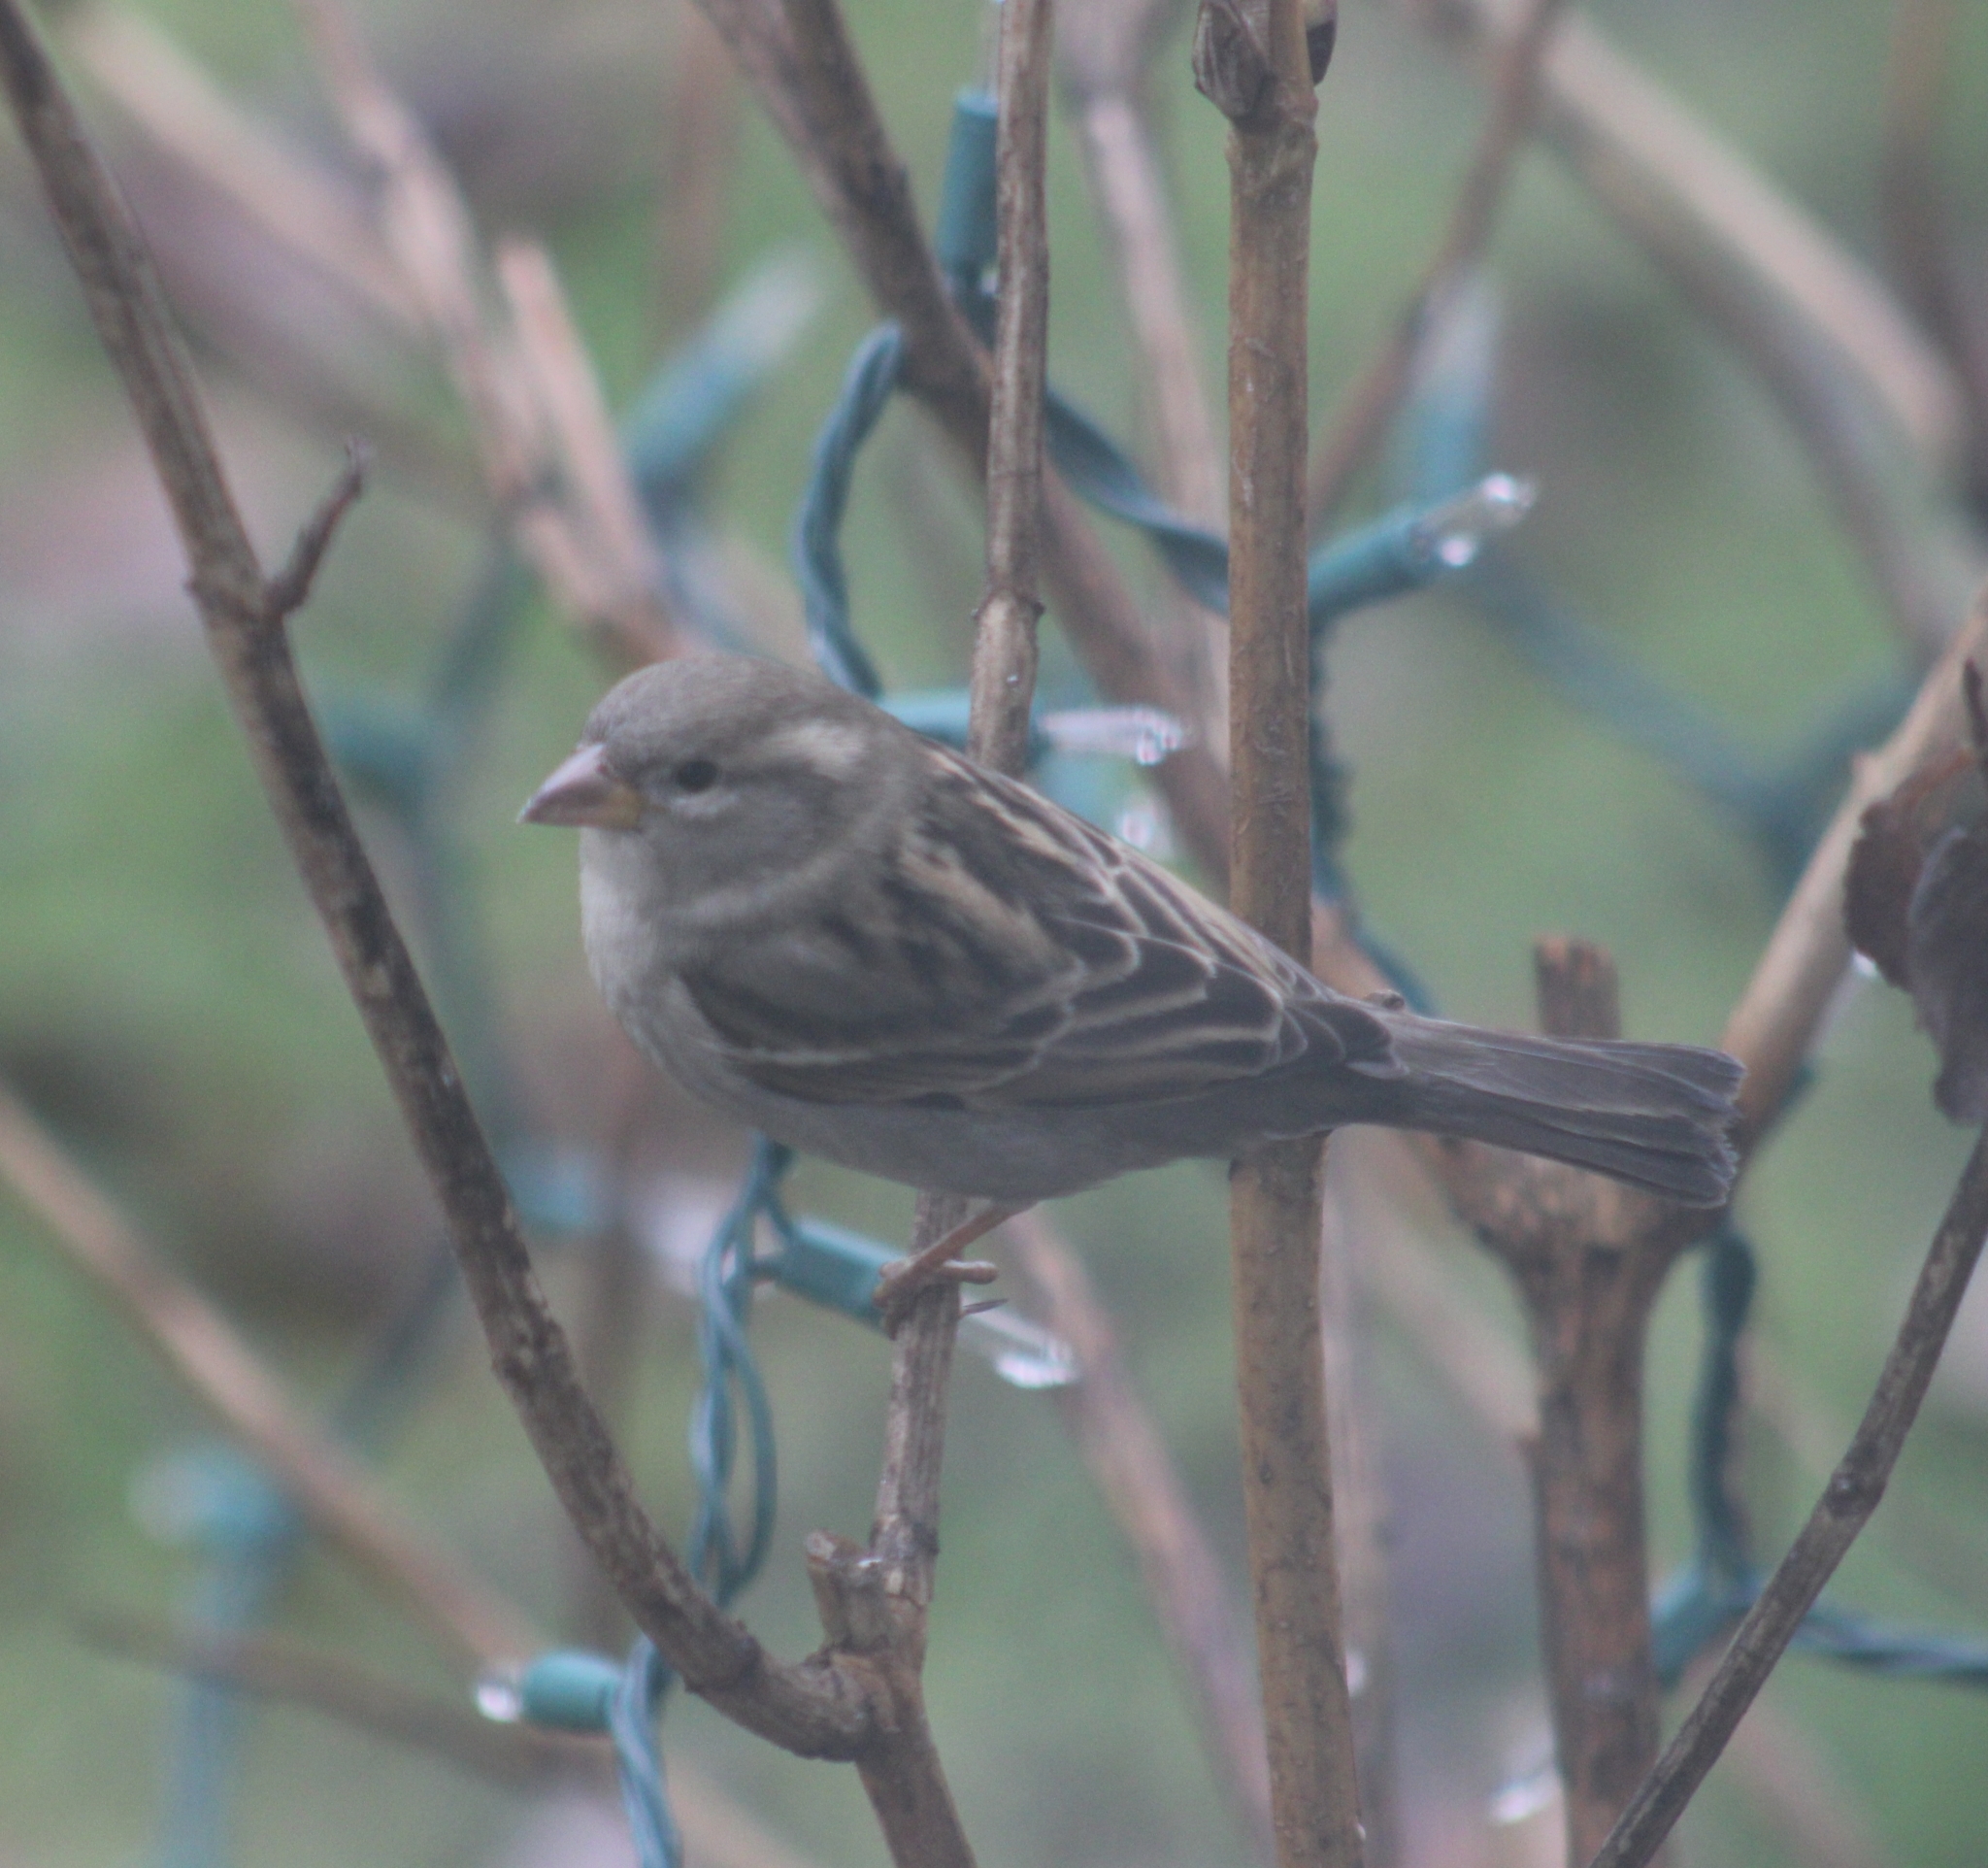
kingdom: Animalia
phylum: Chordata
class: Aves
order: Passeriformes
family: Passeridae
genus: Passer
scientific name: Passer domesticus
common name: House sparrow
